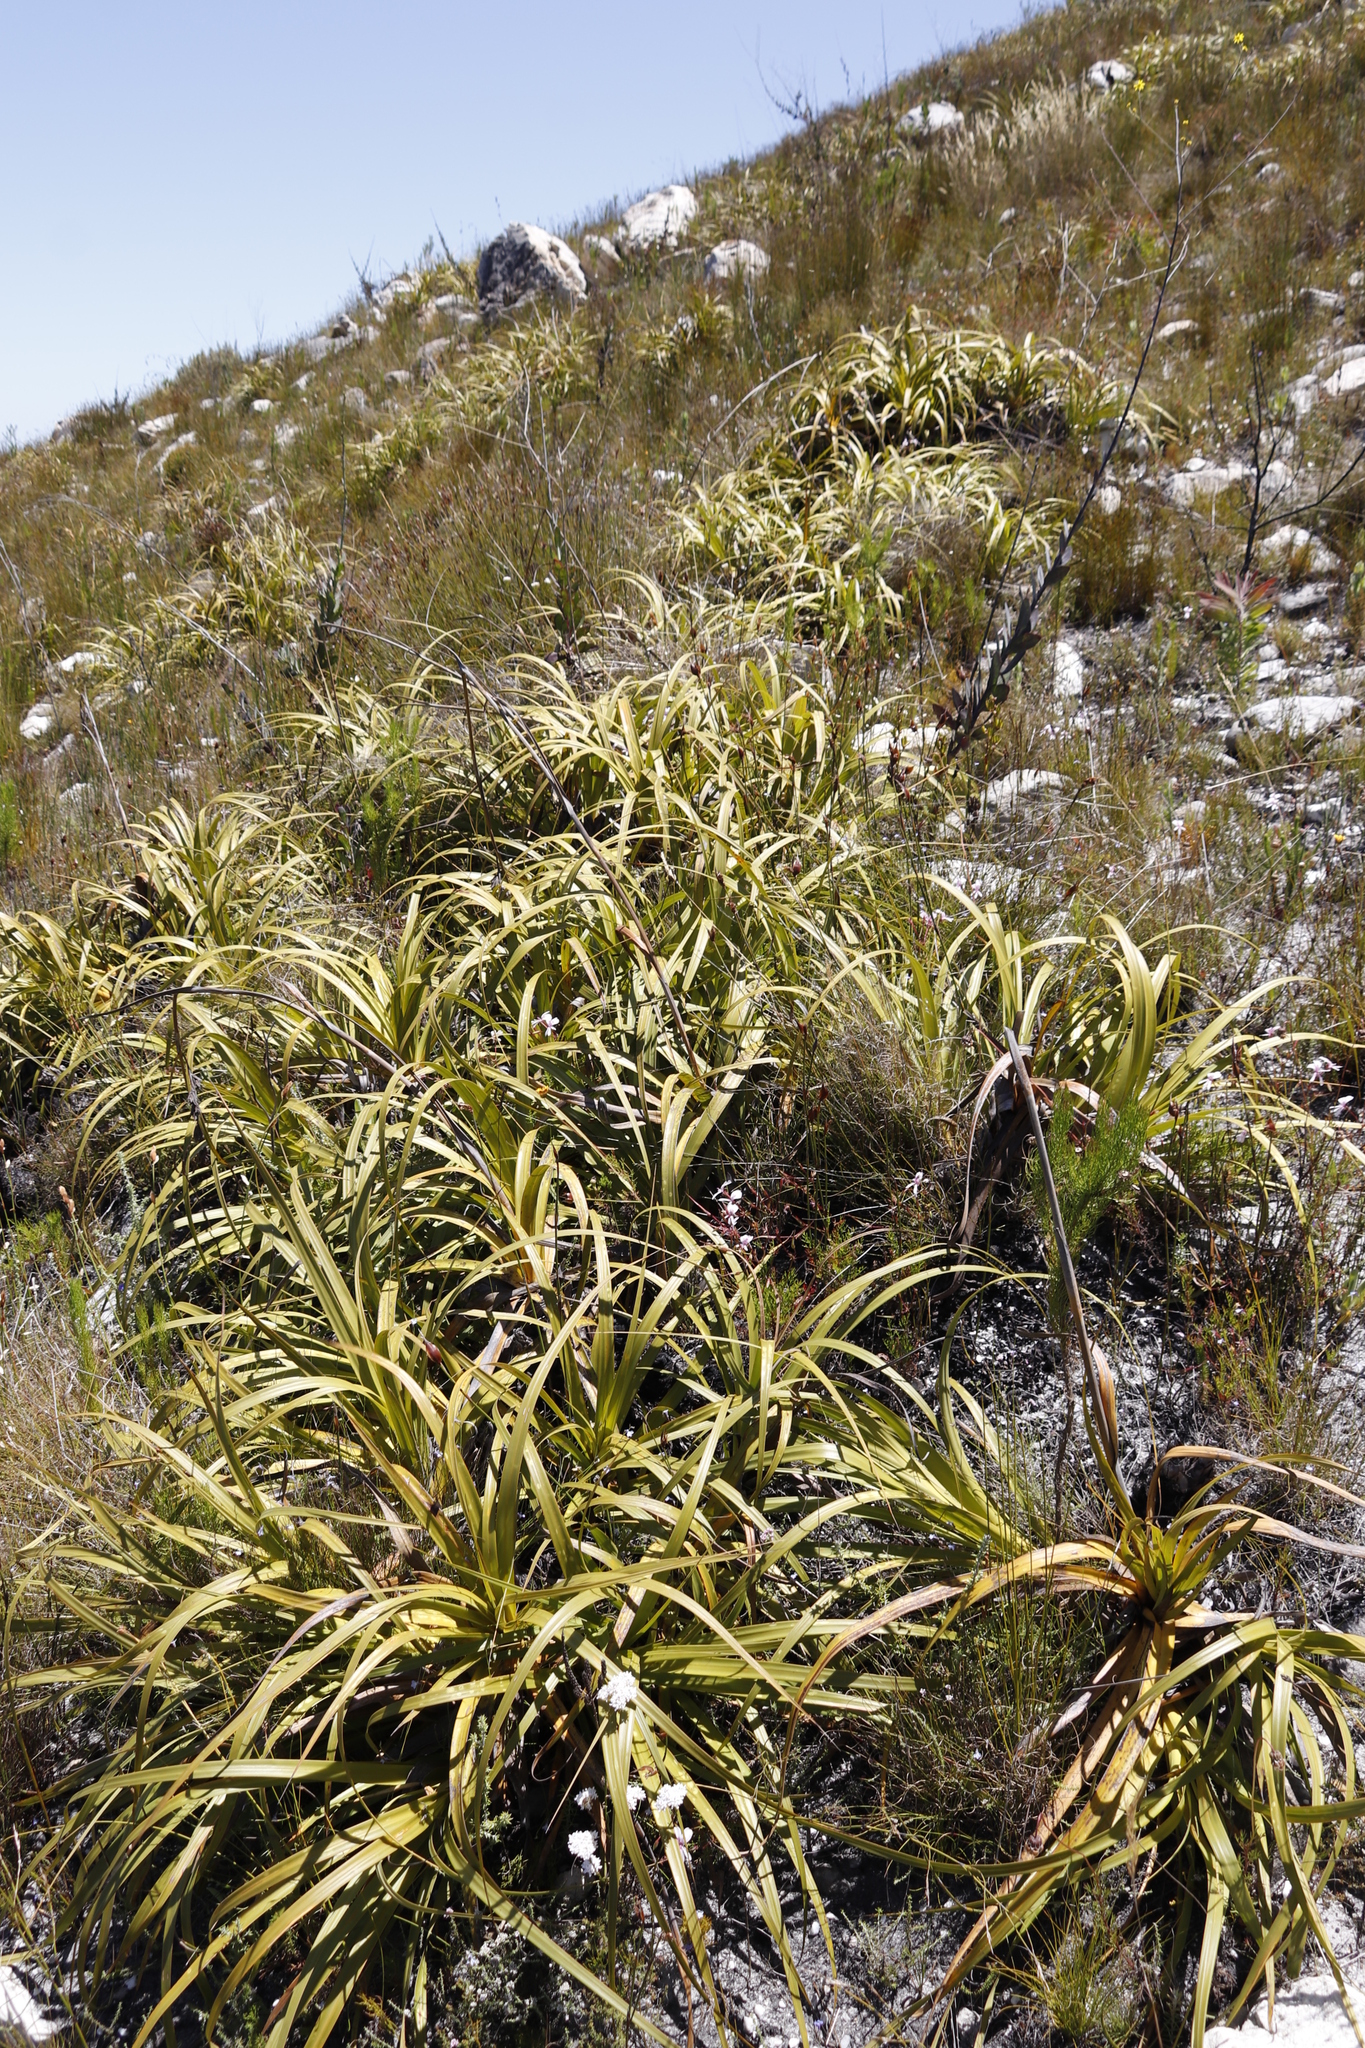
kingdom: Plantae
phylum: Tracheophyta
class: Liliopsida
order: Poales
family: Cyperaceae
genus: Tetraria
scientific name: Tetraria thermalis
